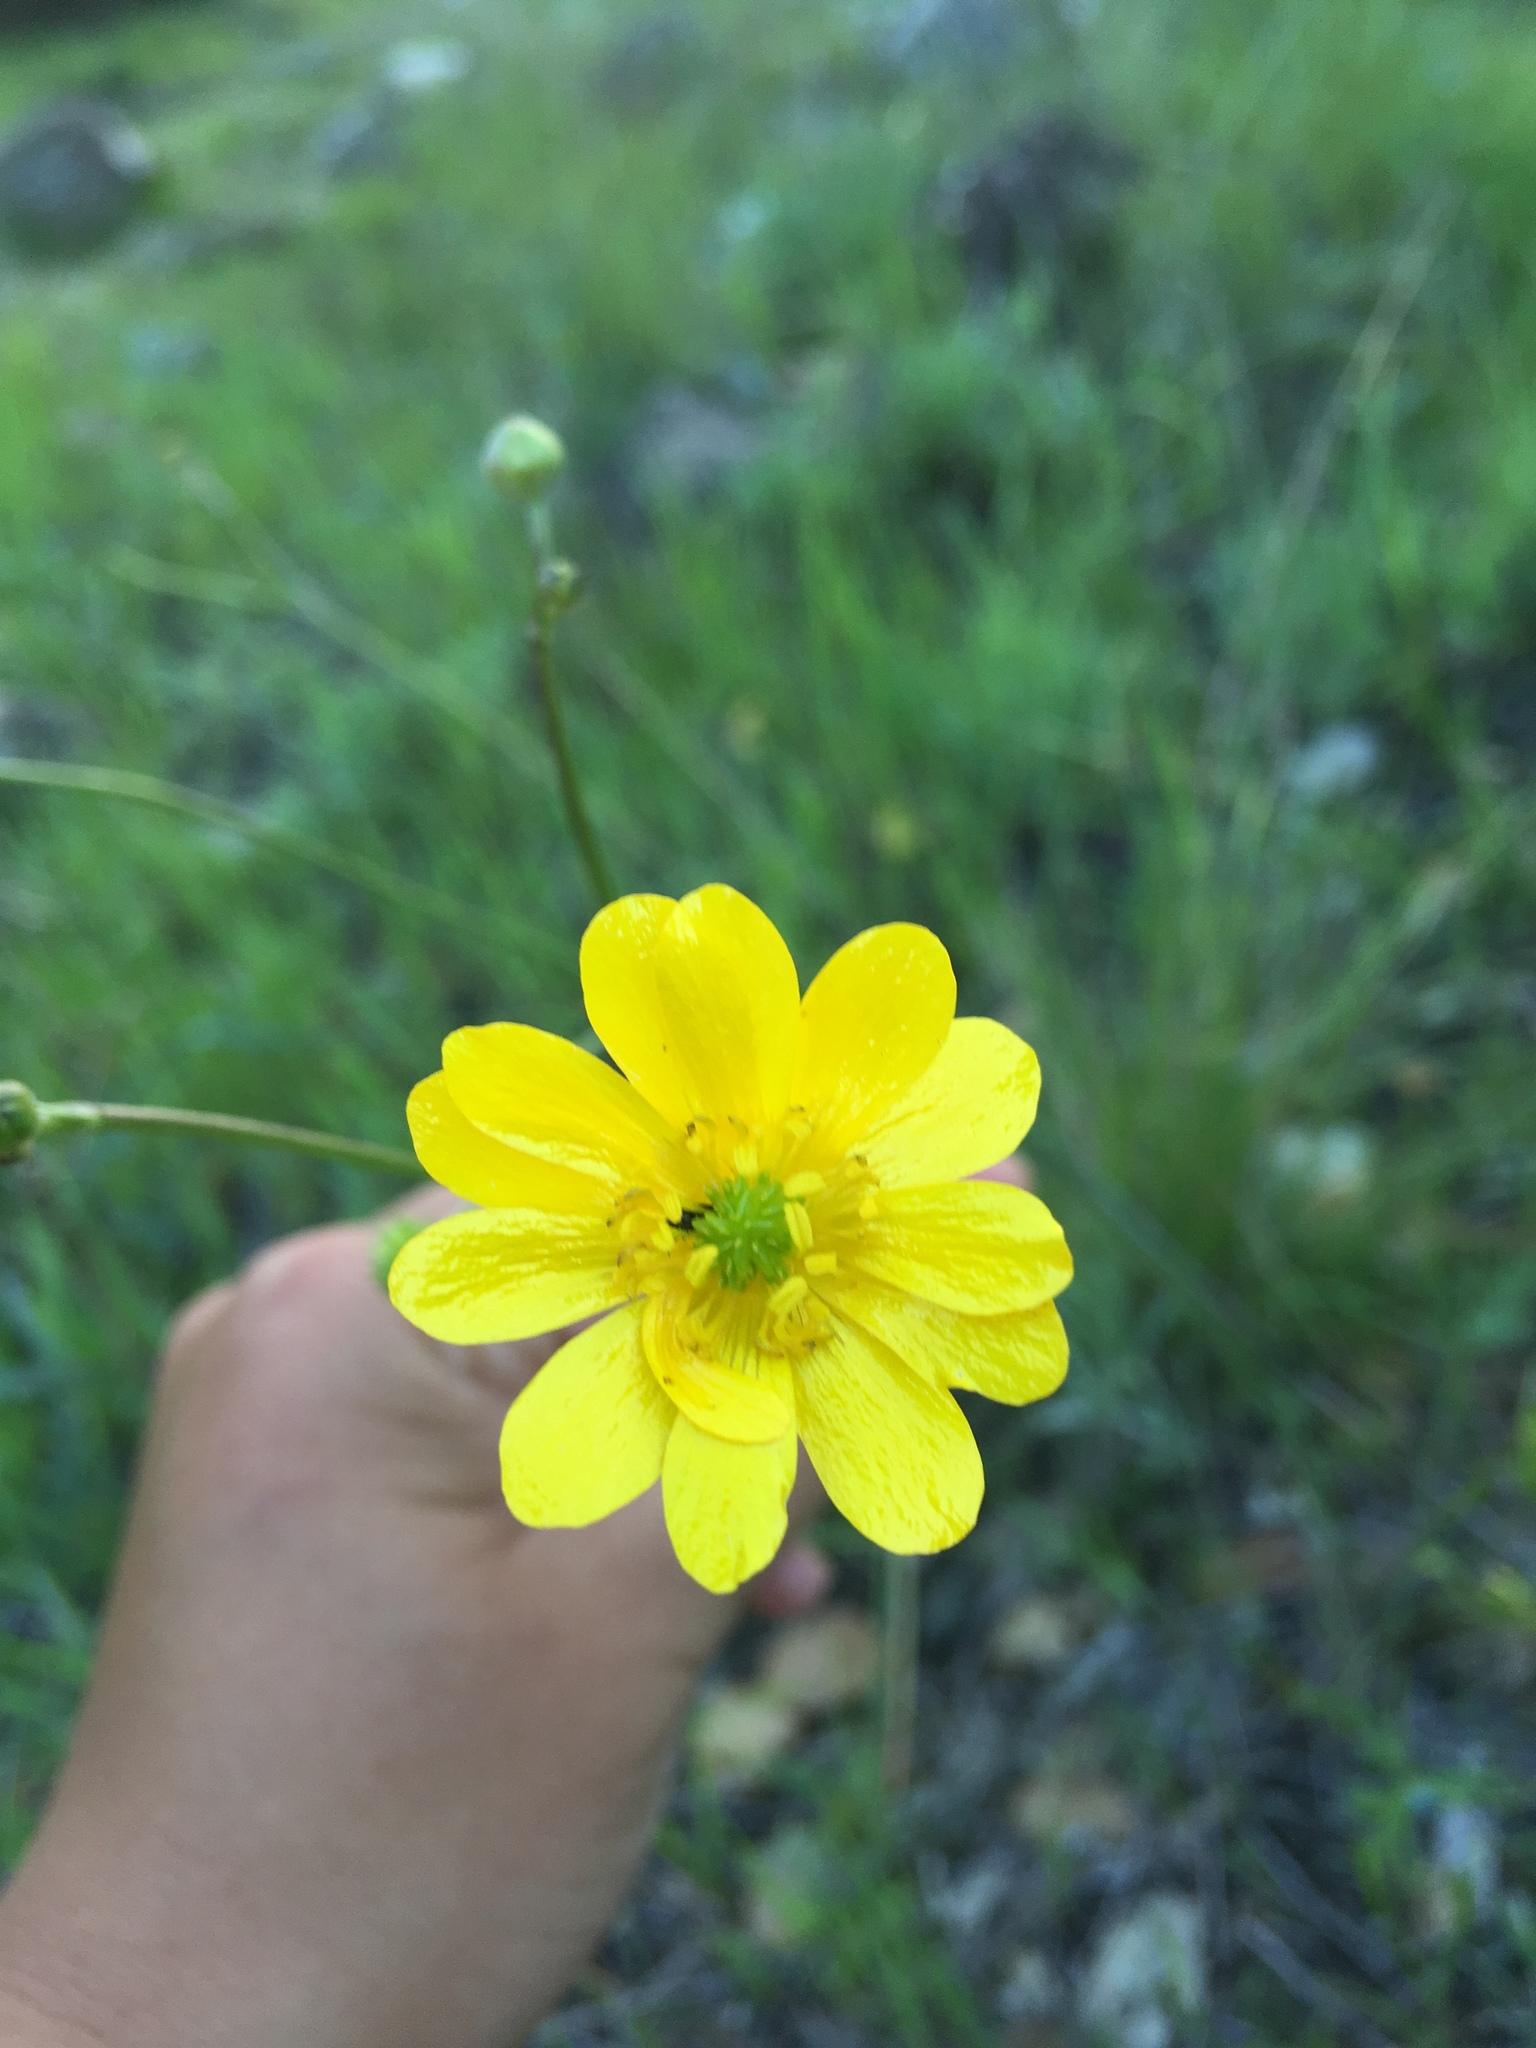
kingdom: Plantae
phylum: Tracheophyta
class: Magnoliopsida
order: Ranunculales
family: Ranunculaceae
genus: Ranunculus
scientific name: Ranunculus californicus
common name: California buttercup
